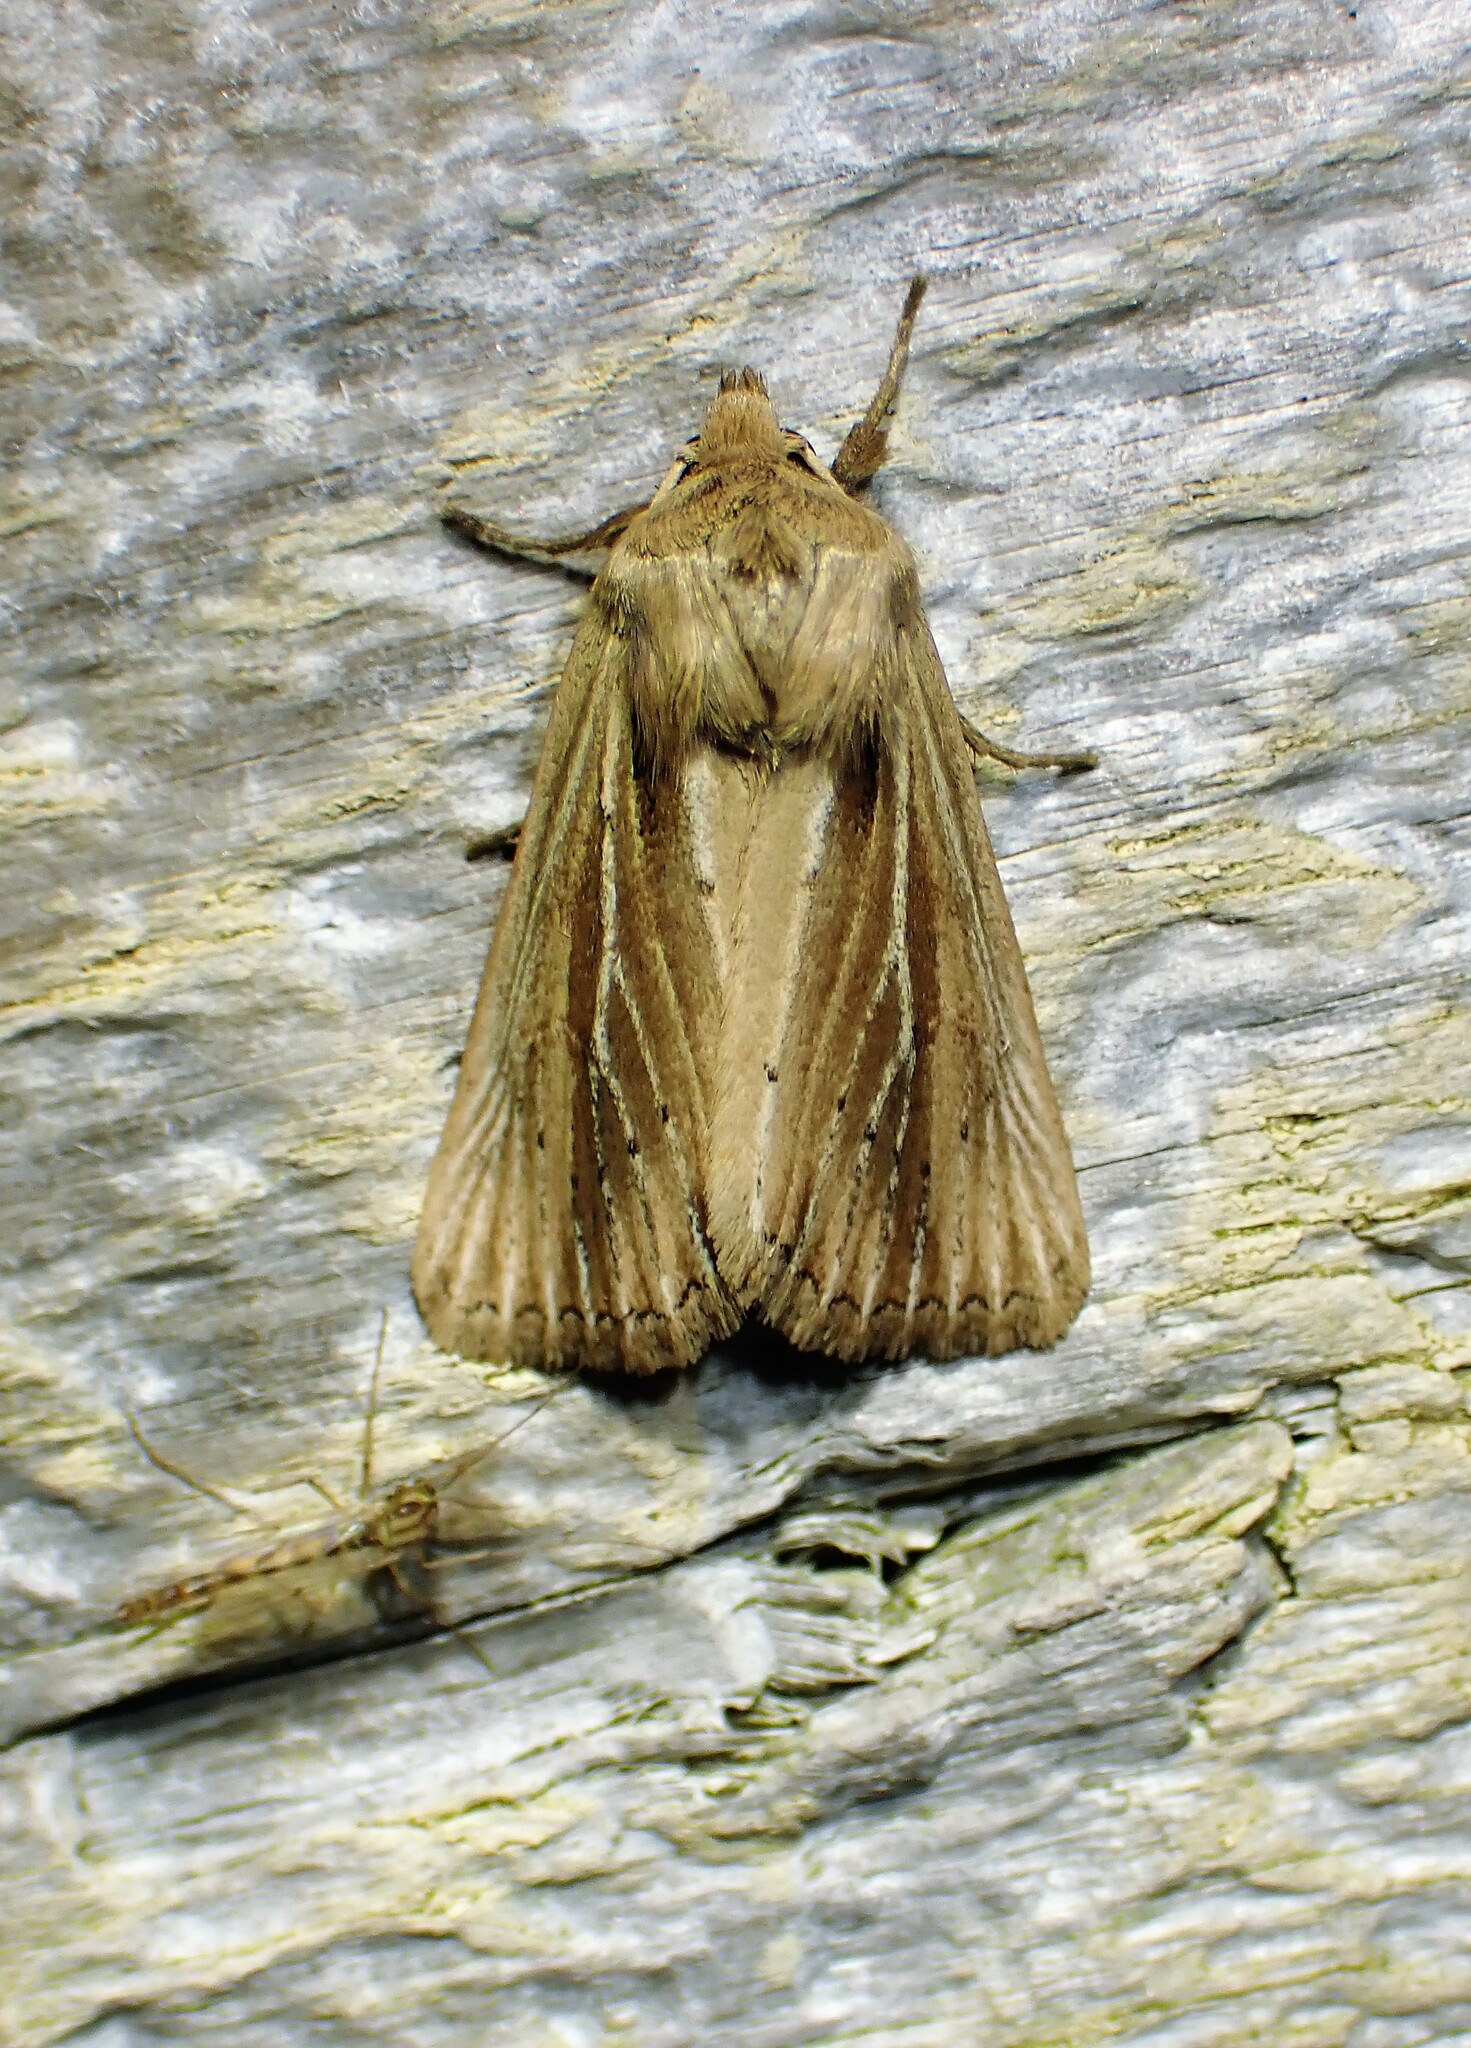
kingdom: Animalia
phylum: Arthropoda
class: Insecta
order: Lepidoptera
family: Noctuidae
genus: Hypocoena
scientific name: Hypocoena rufostrigata
